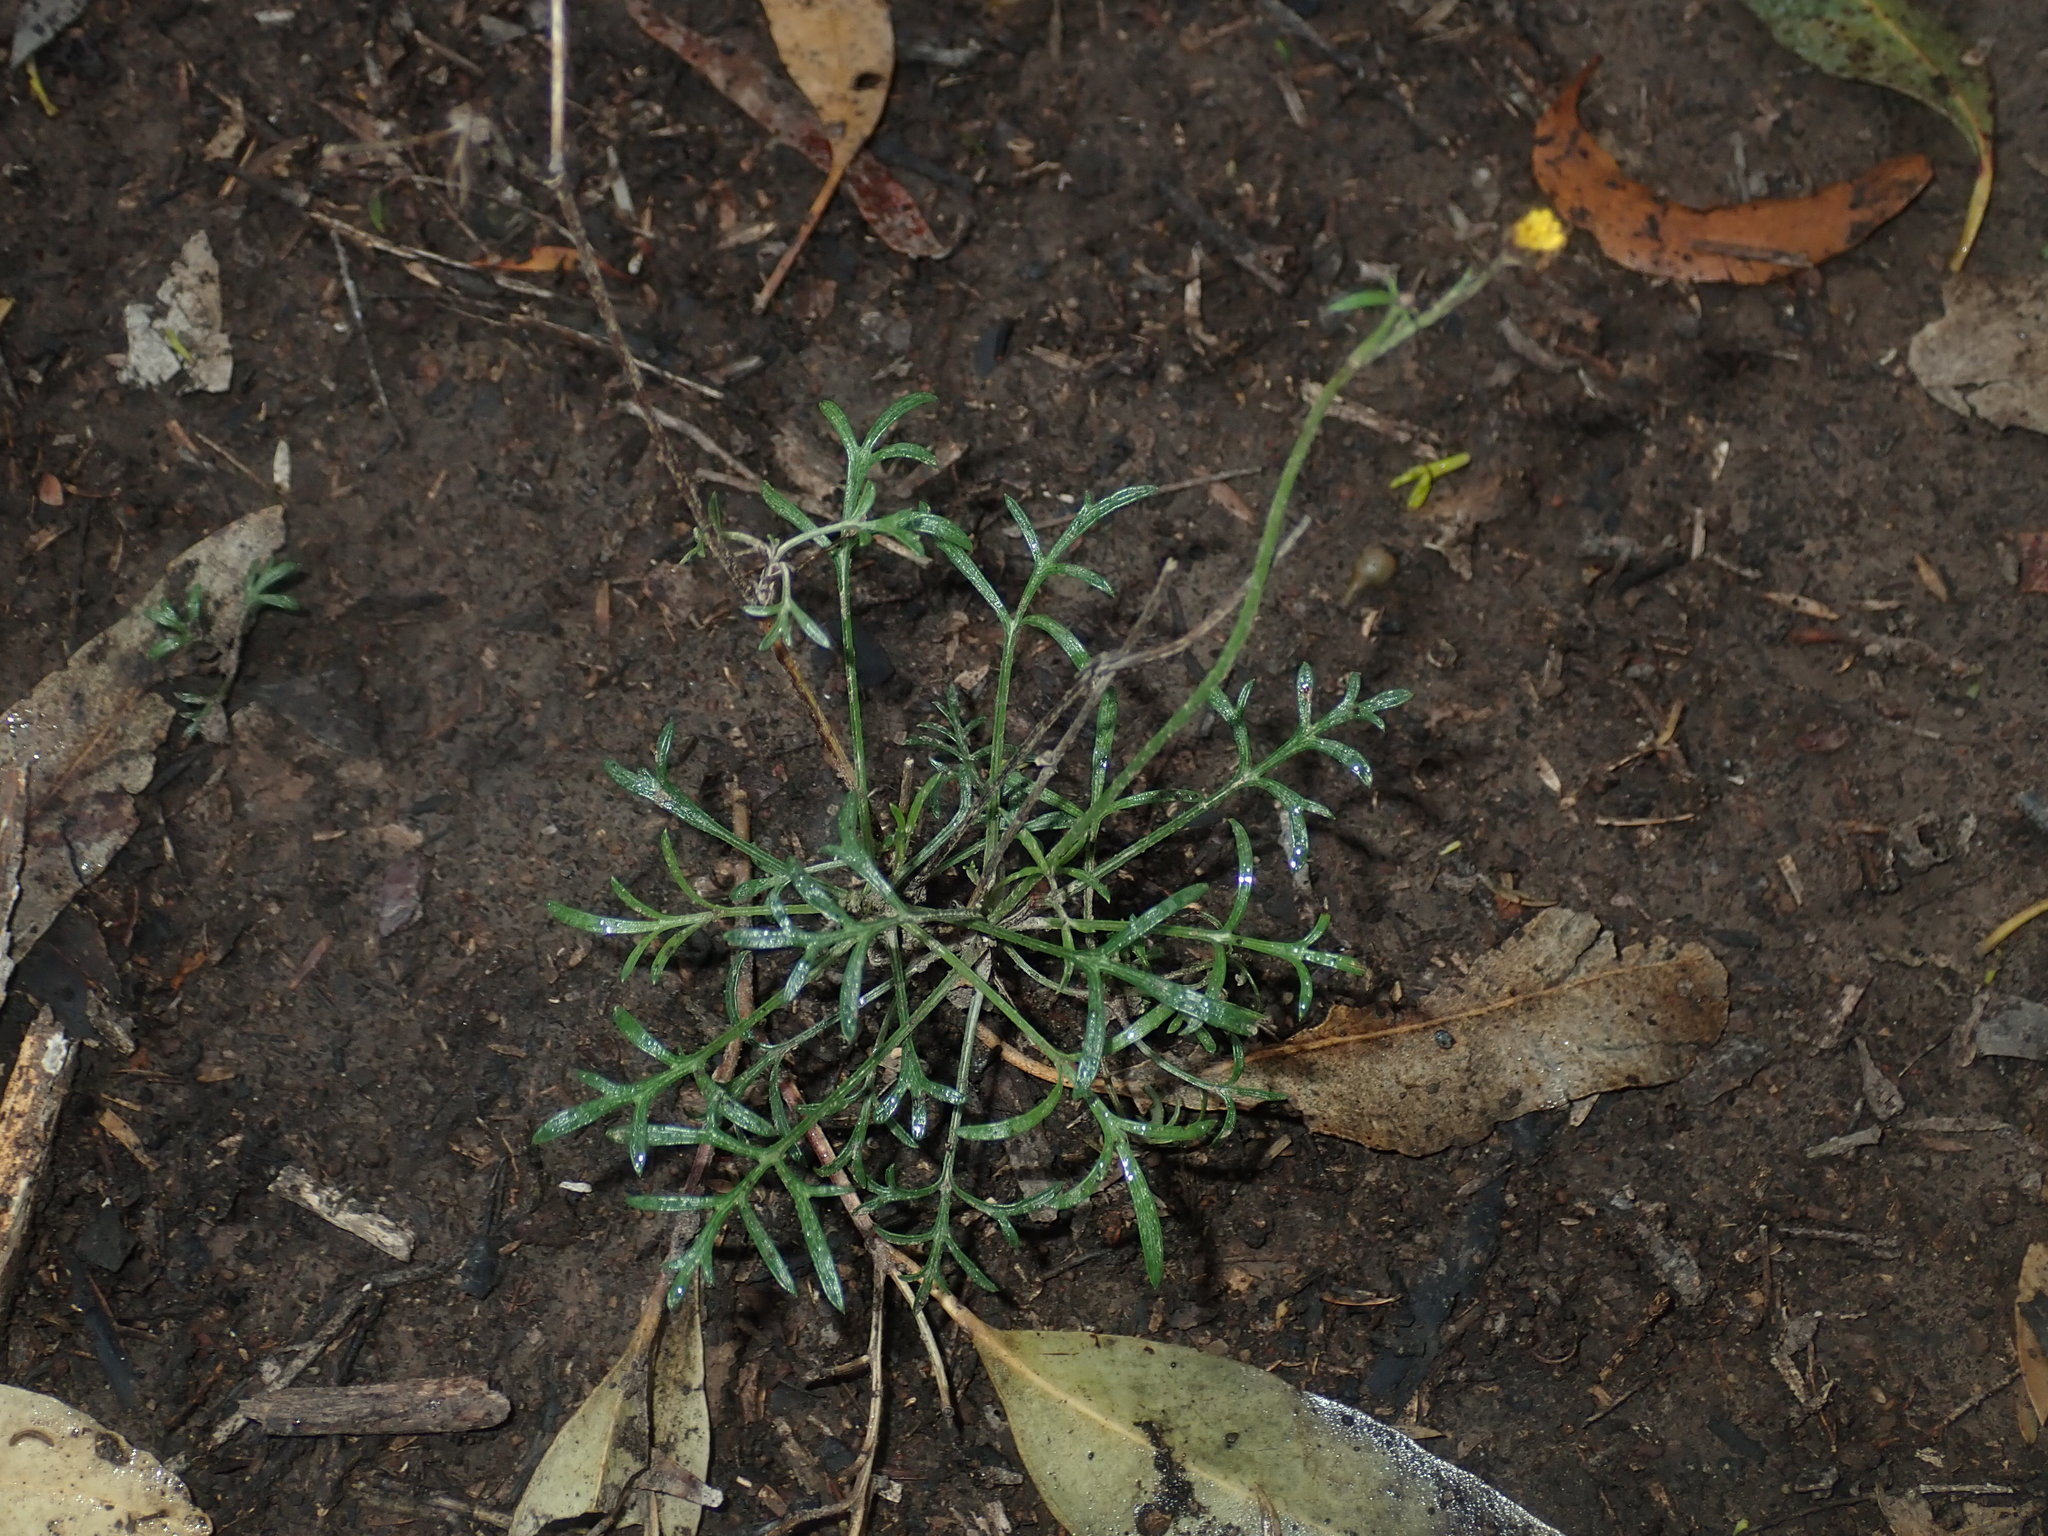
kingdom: Plantae
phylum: Tracheophyta
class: Magnoliopsida
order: Asterales
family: Asteraceae
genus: Glossocardia
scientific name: Glossocardia bidens
